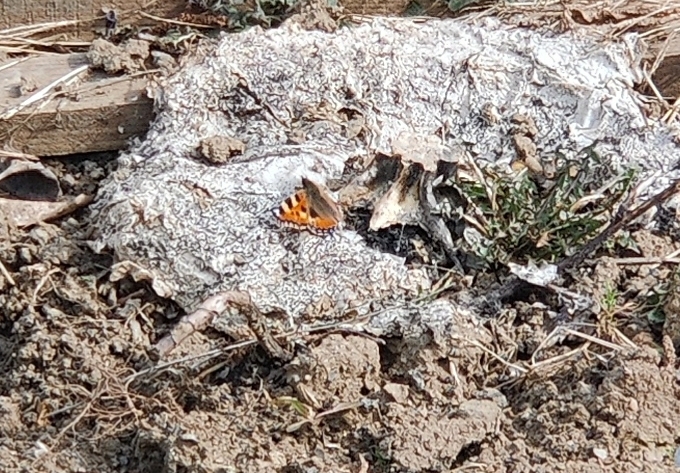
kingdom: Animalia
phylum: Arthropoda
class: Insecta
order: Lepidoptera
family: Nymphalidae
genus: Aglais
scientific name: Aglais urticae
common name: Small tortoiseshell
